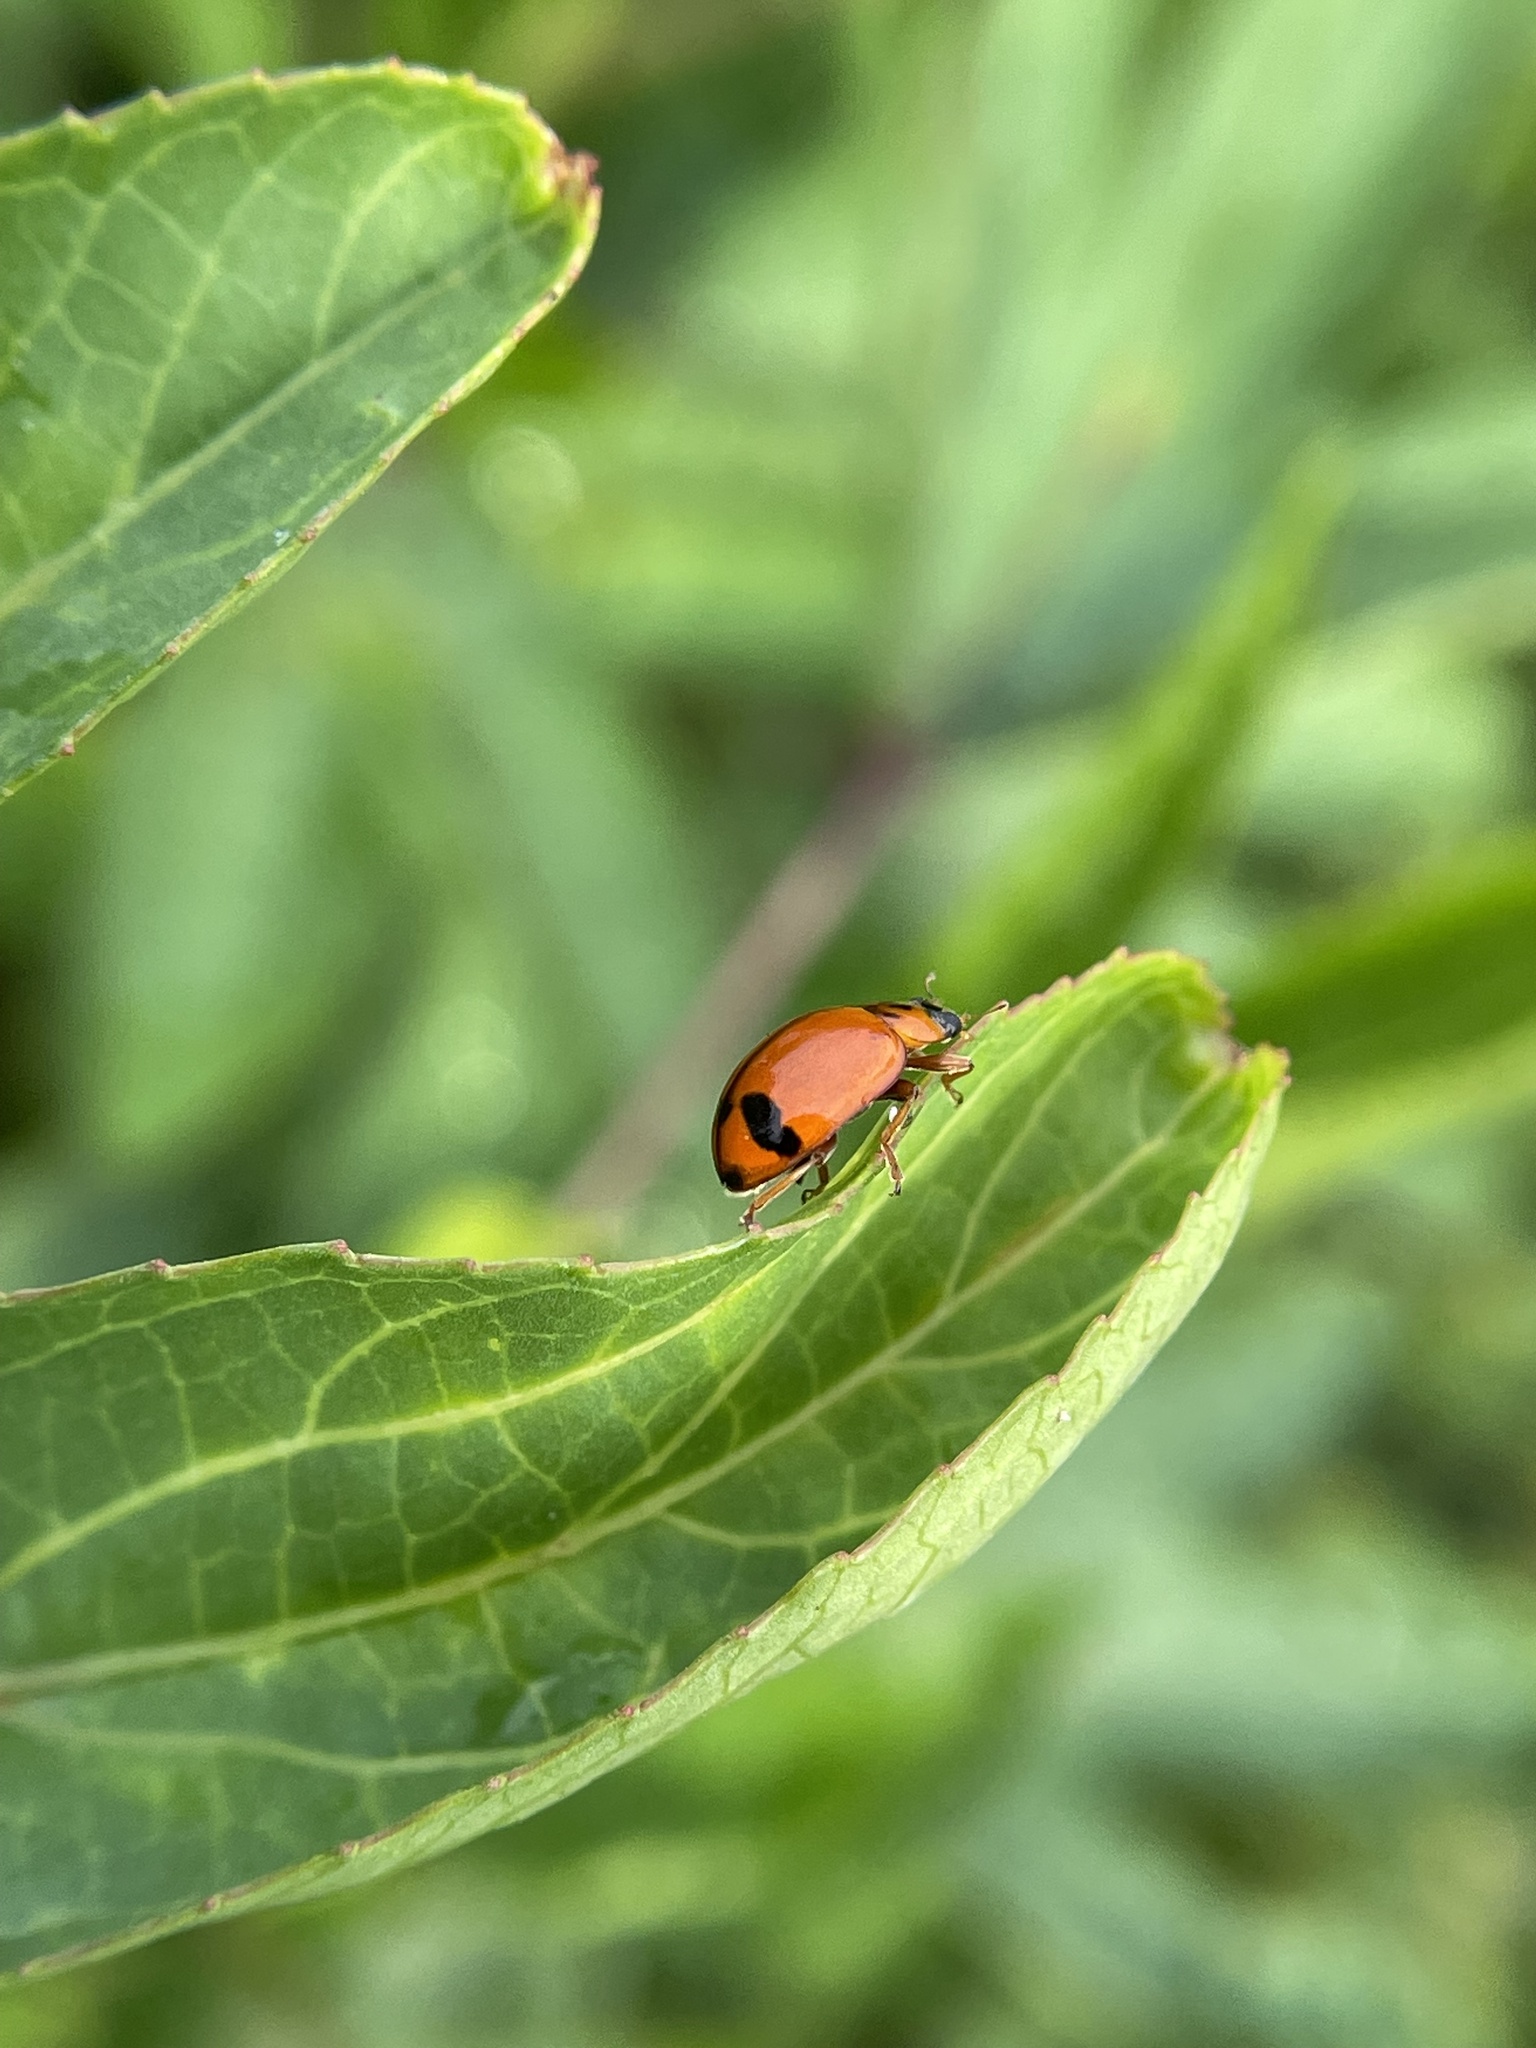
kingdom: Animalia
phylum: Arthropoda
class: Insecta
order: Coleoptera
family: Coccinellidae
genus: Harmonia
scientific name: Harmonia octomaculata
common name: Lady beetle
